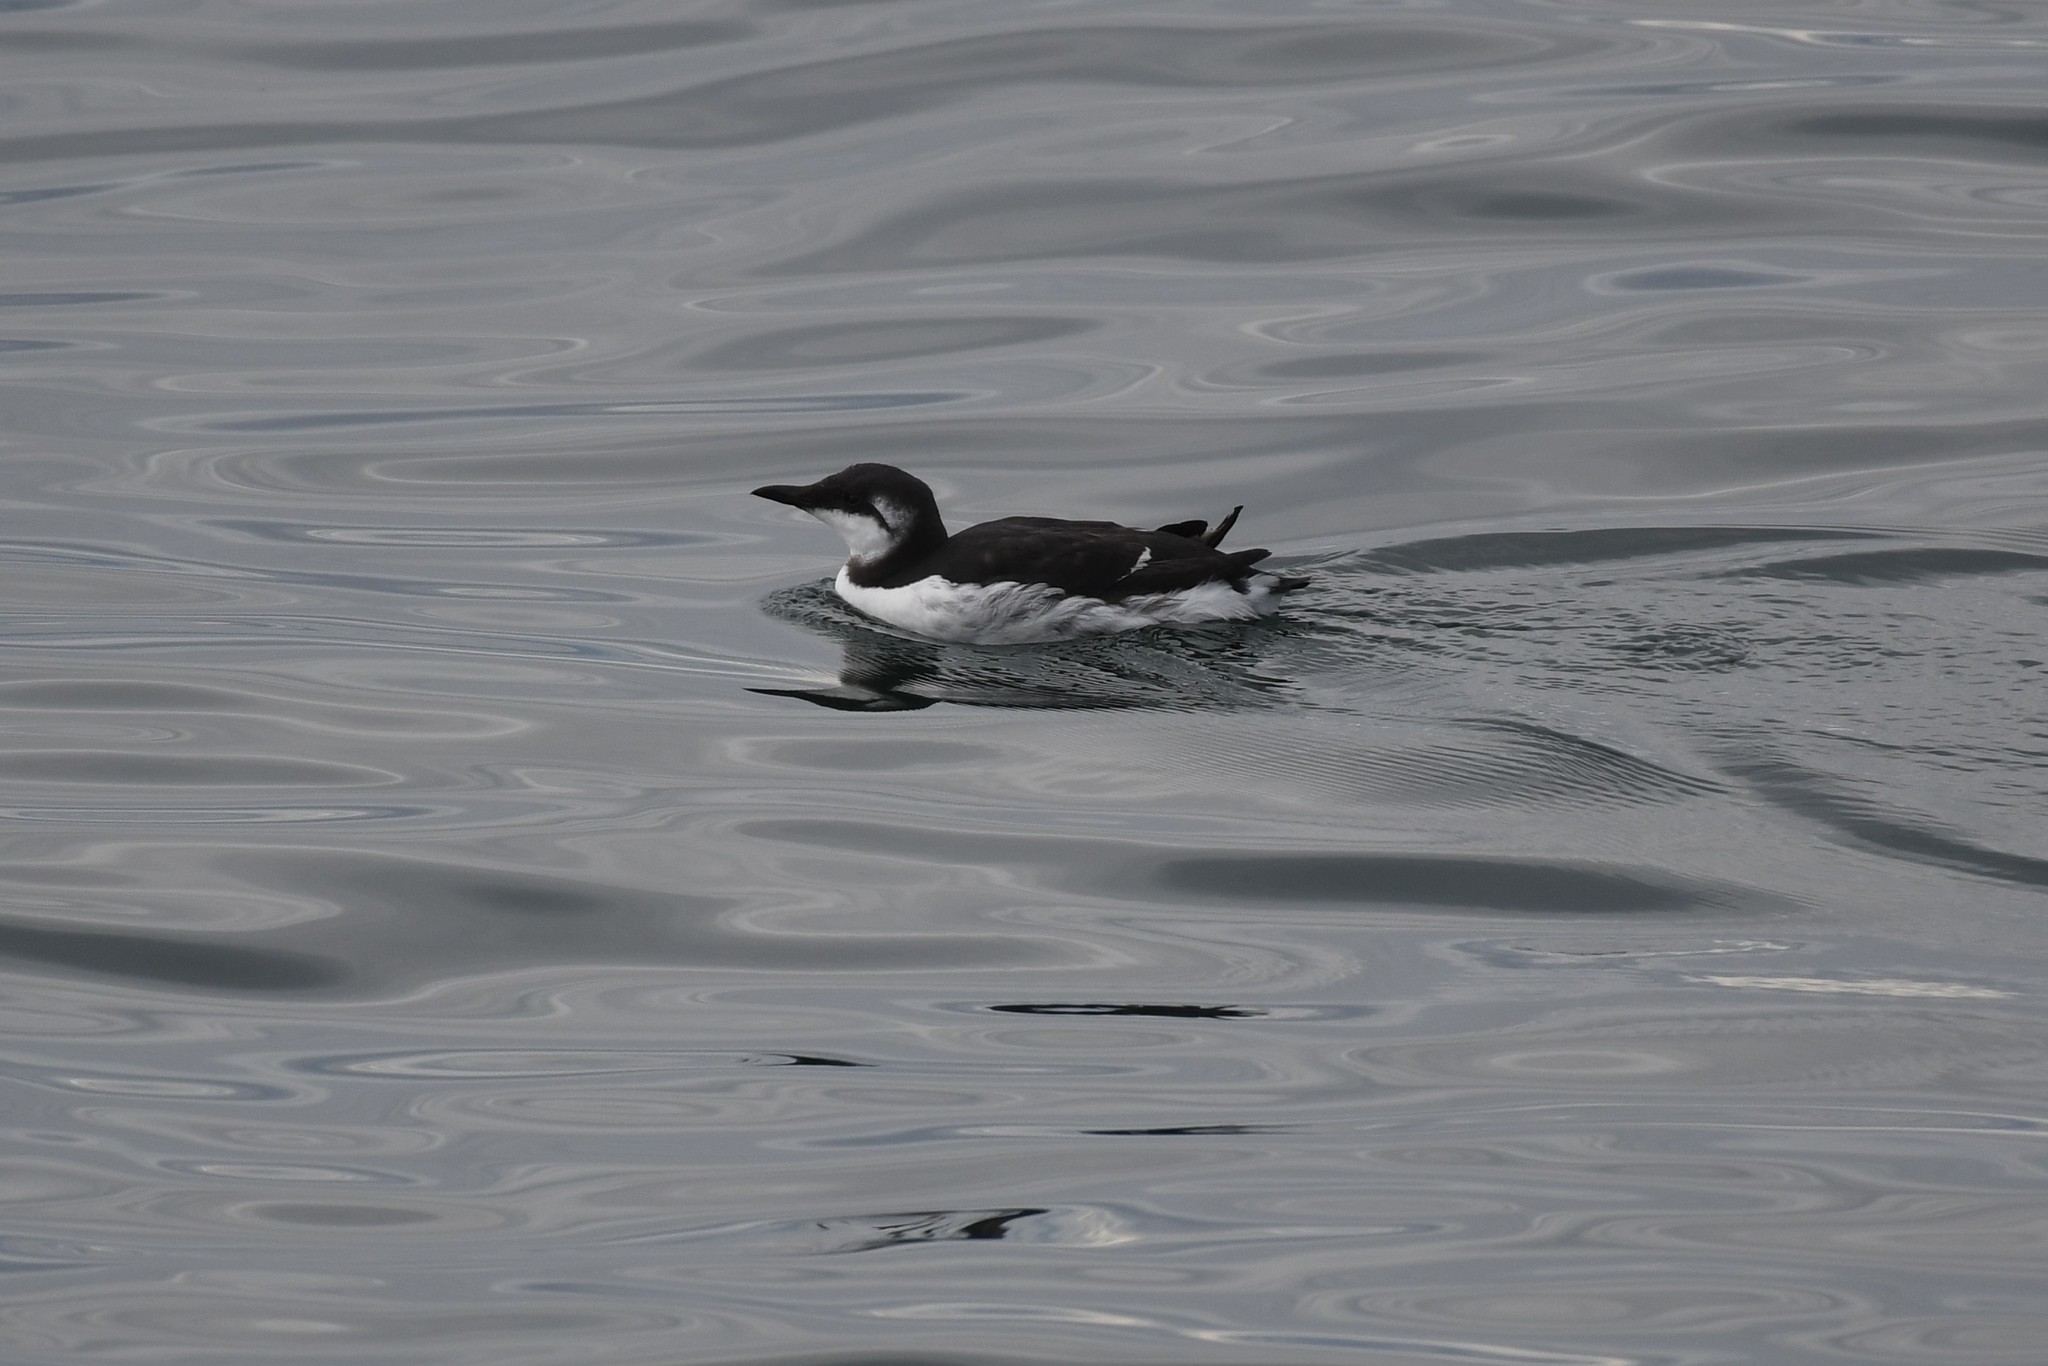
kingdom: Animalia
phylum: Chordata
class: Aves
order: Charadriiformes
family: Alcidae
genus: Uria
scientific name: Uria aalge
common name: Common murre
